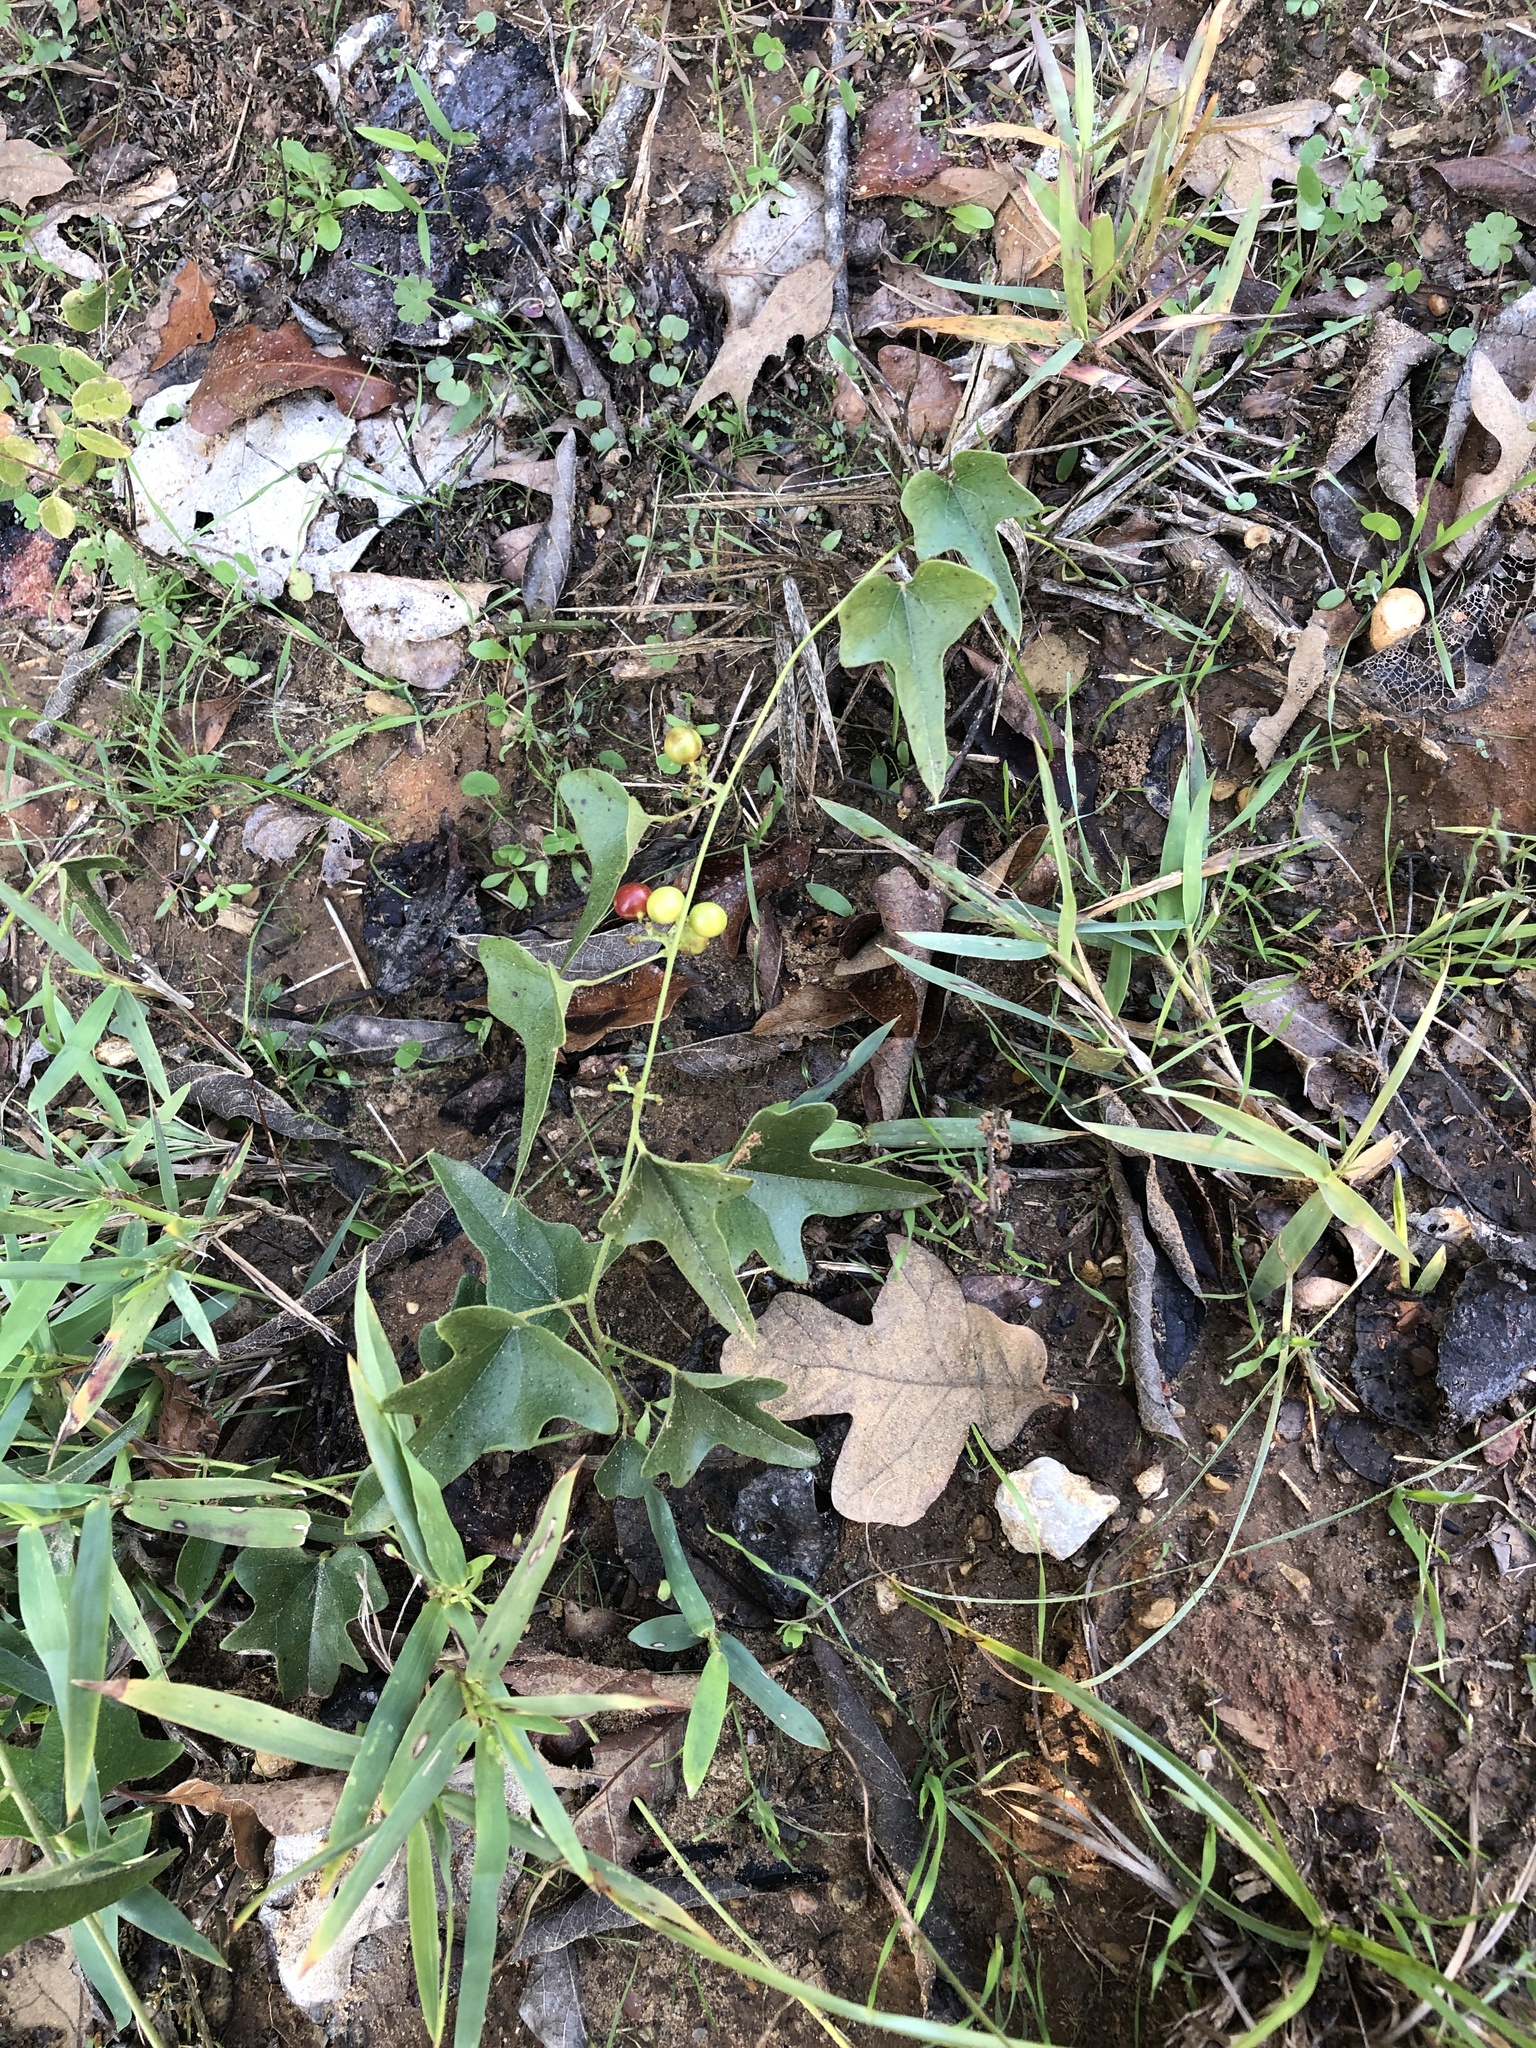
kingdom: Plantae
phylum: Tracheophyta
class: Magnoliopsida
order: Ranunculales
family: Menispermaceae
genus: Cocculus
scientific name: Cocculus carolinus
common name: Carolina moonseed
